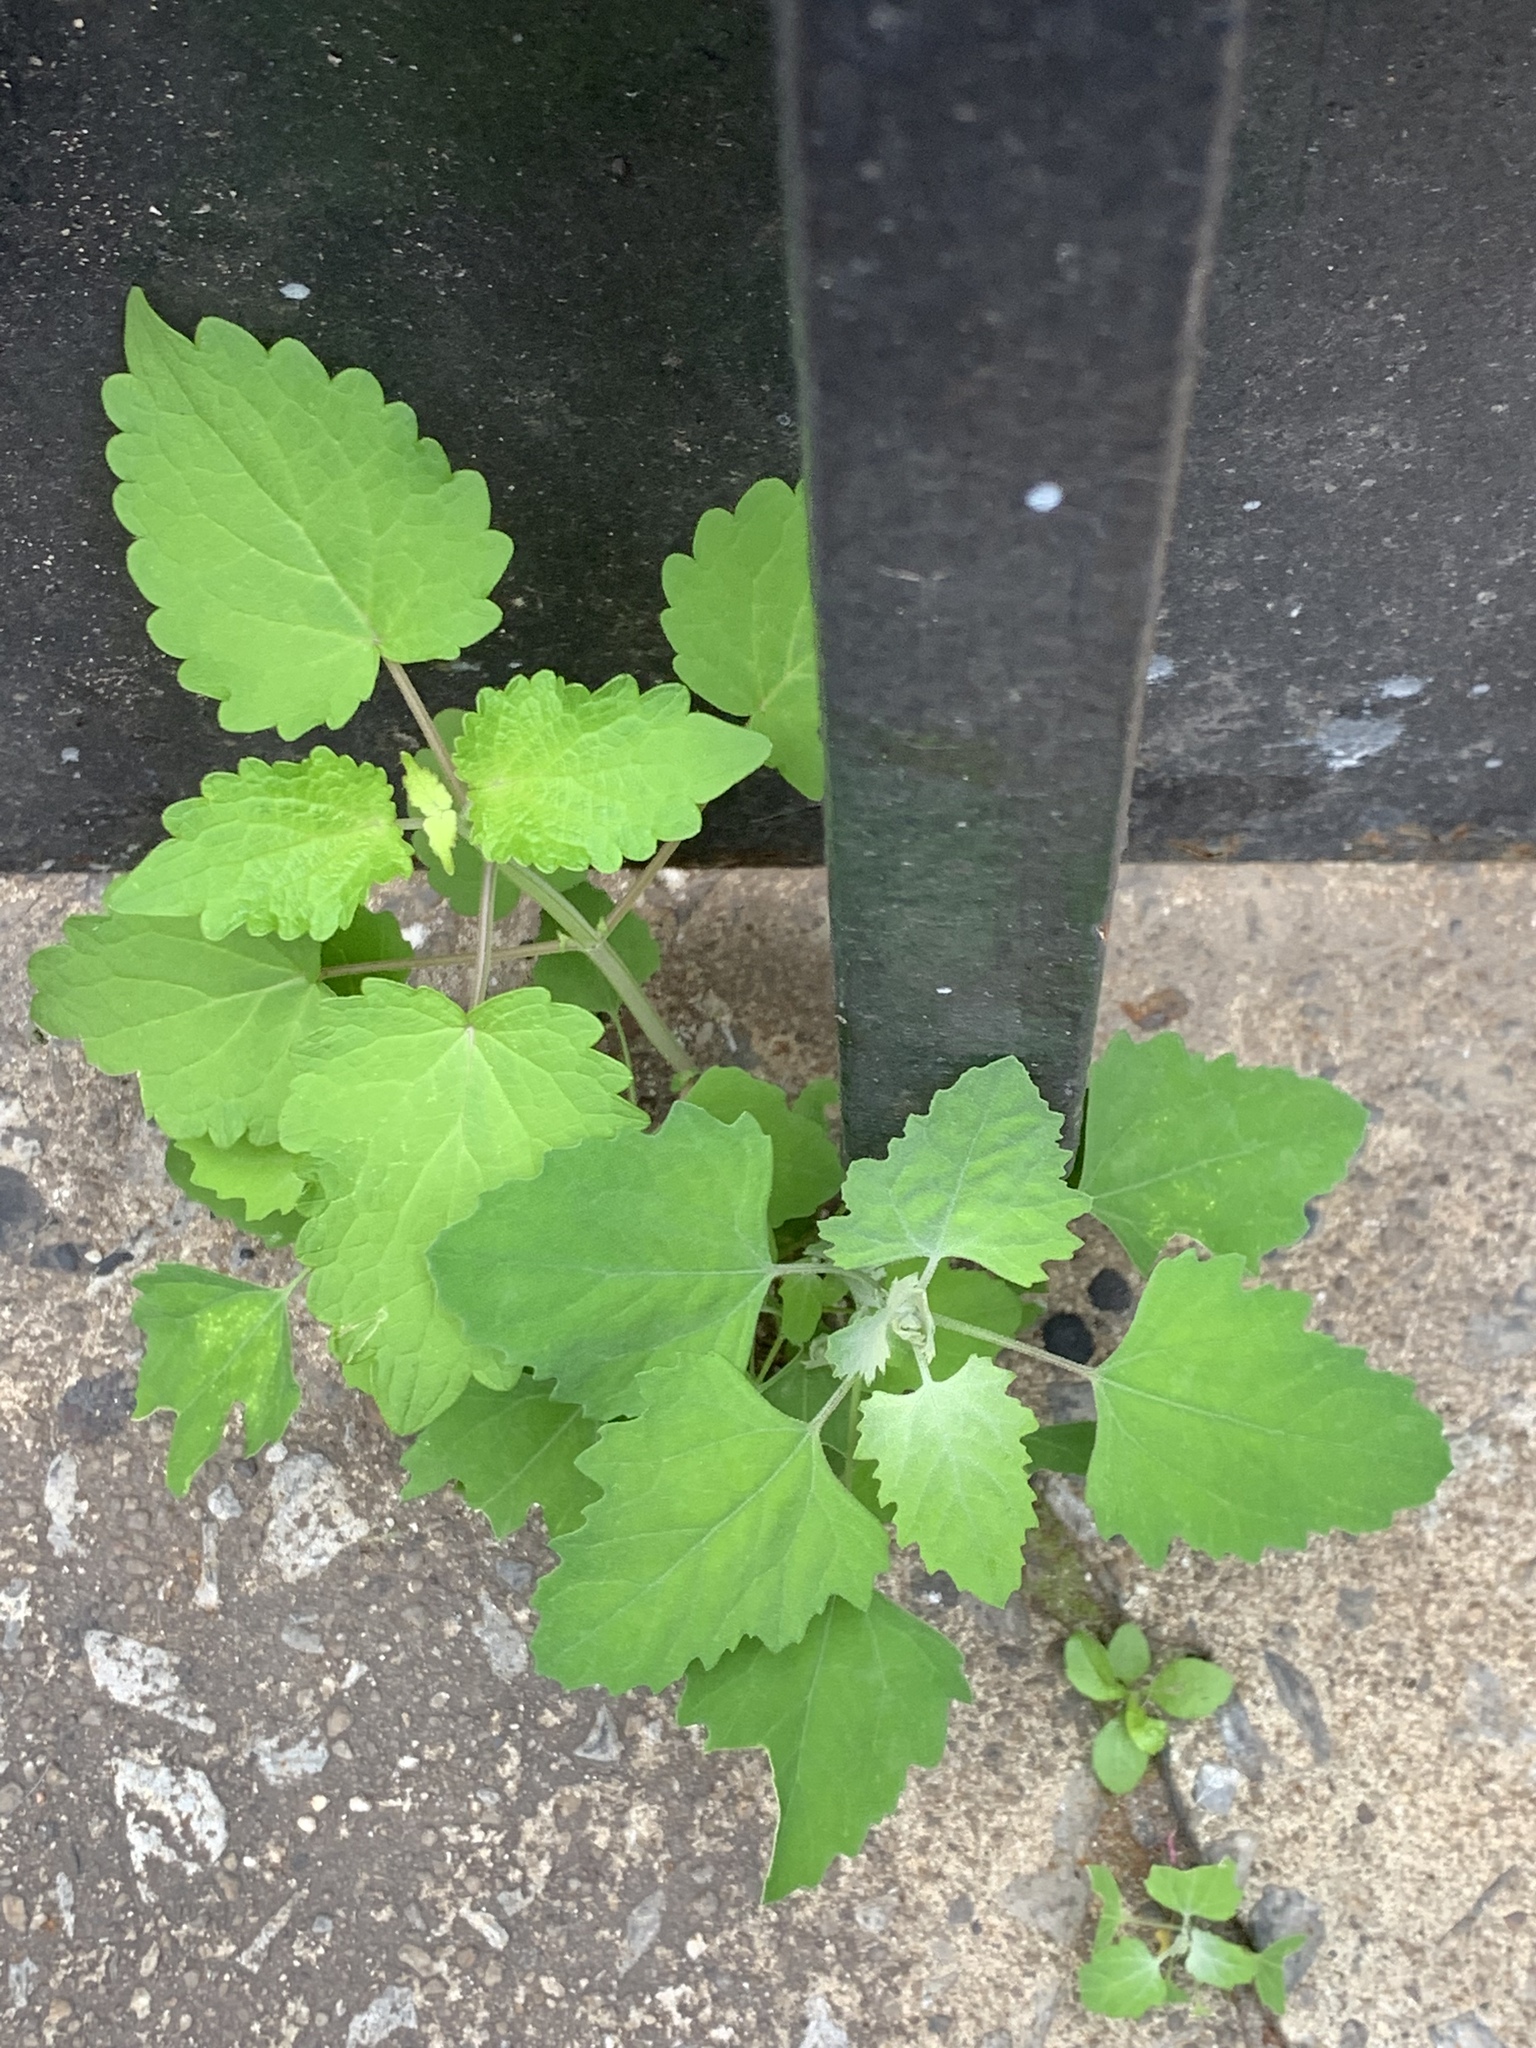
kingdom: Plantae
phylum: Tracheophyta
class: Magnoliopsida
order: Caryophyllales
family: Amaranthaceae
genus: Chenopodium
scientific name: Chenopodium album
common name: Fat-hen
